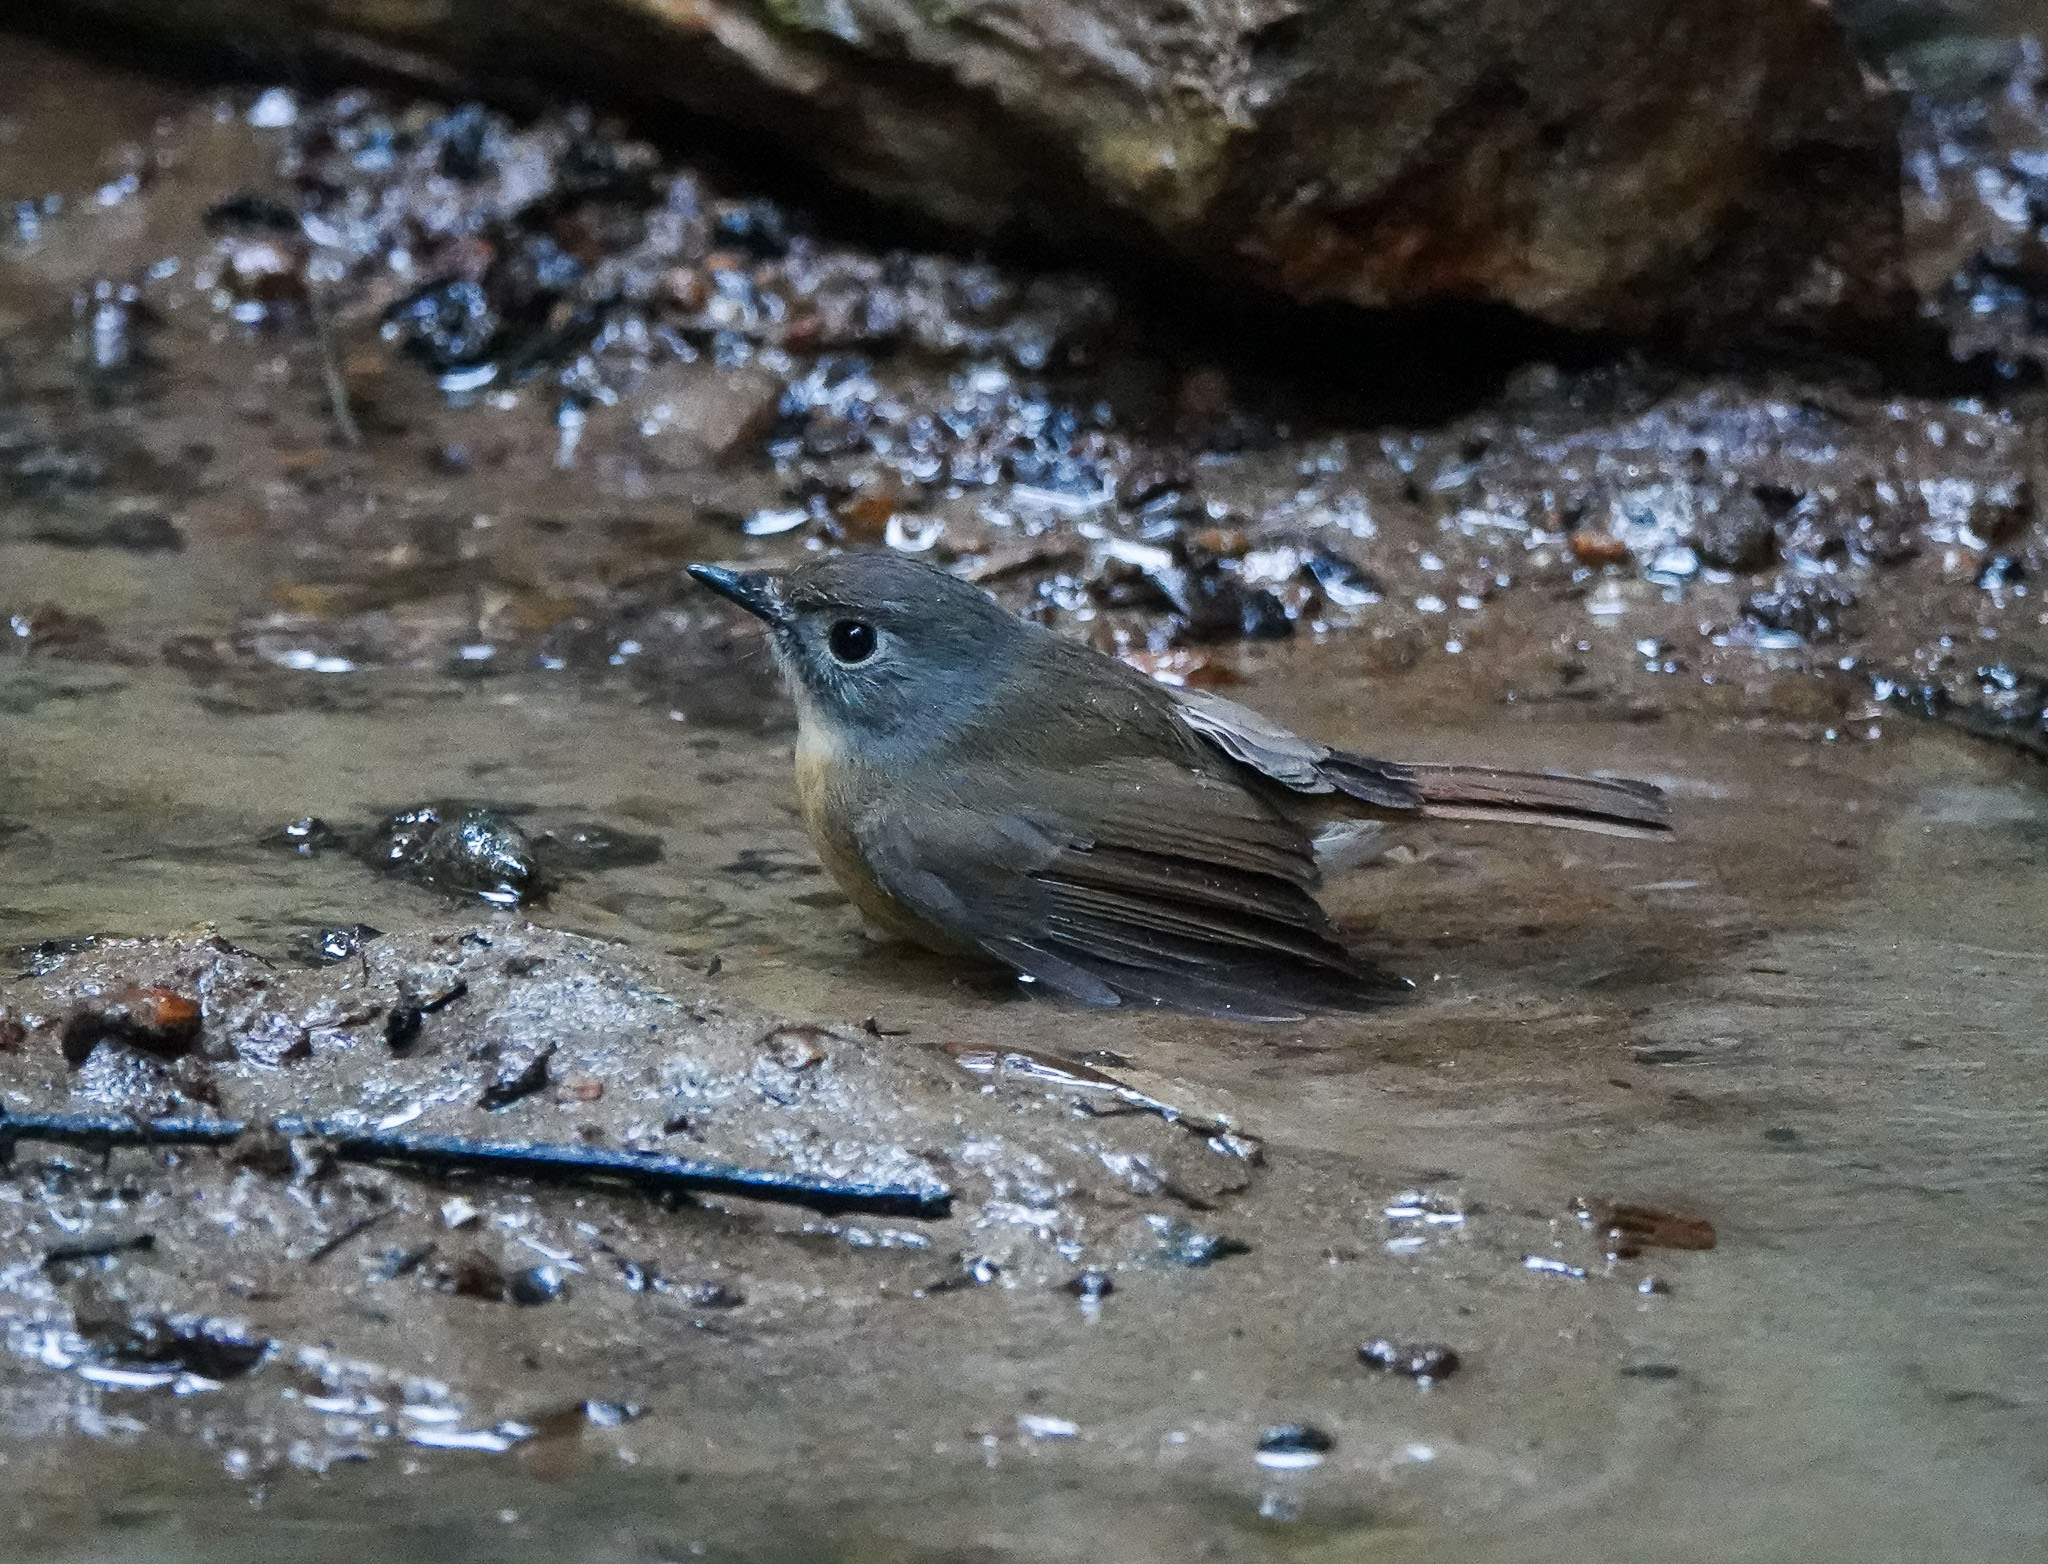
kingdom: Animalia
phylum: Chordata
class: Aves
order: Passeriformes
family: Muscicapidae
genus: Cyornis
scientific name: Cyornis poliogenys
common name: Pale-chinned blue flycatcher
